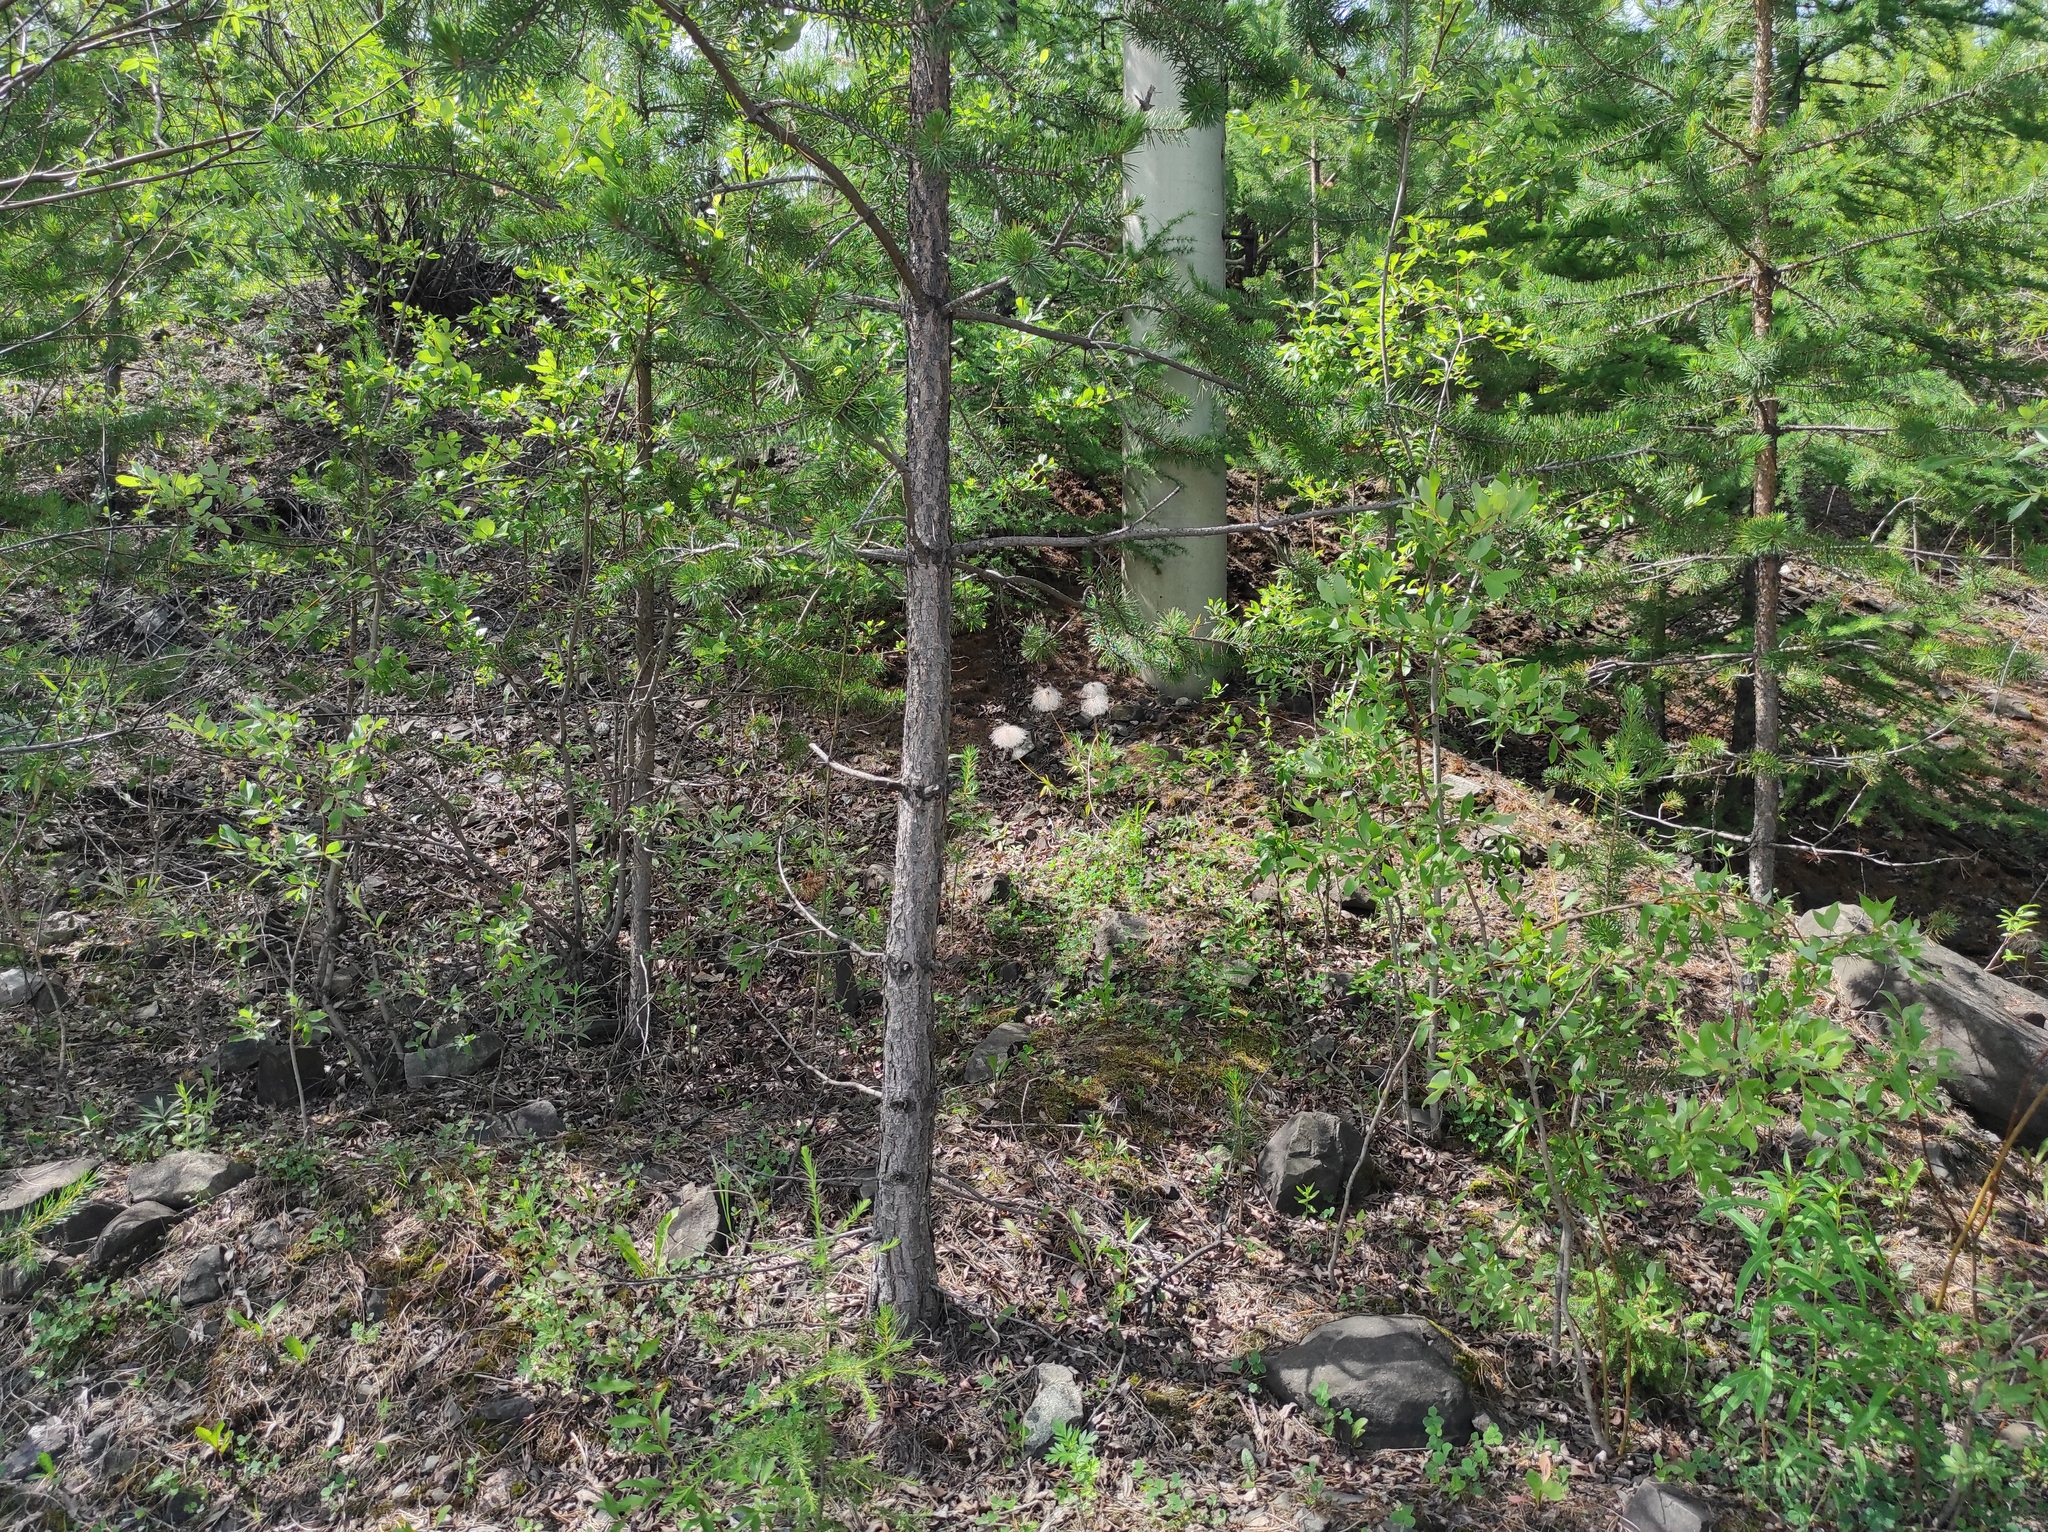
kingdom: Plantae
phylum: Tracheophyta
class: Pinopsida
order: Pinales
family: Pinaceae
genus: Pinus
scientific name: Pinus sylvestris
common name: Scots pine
